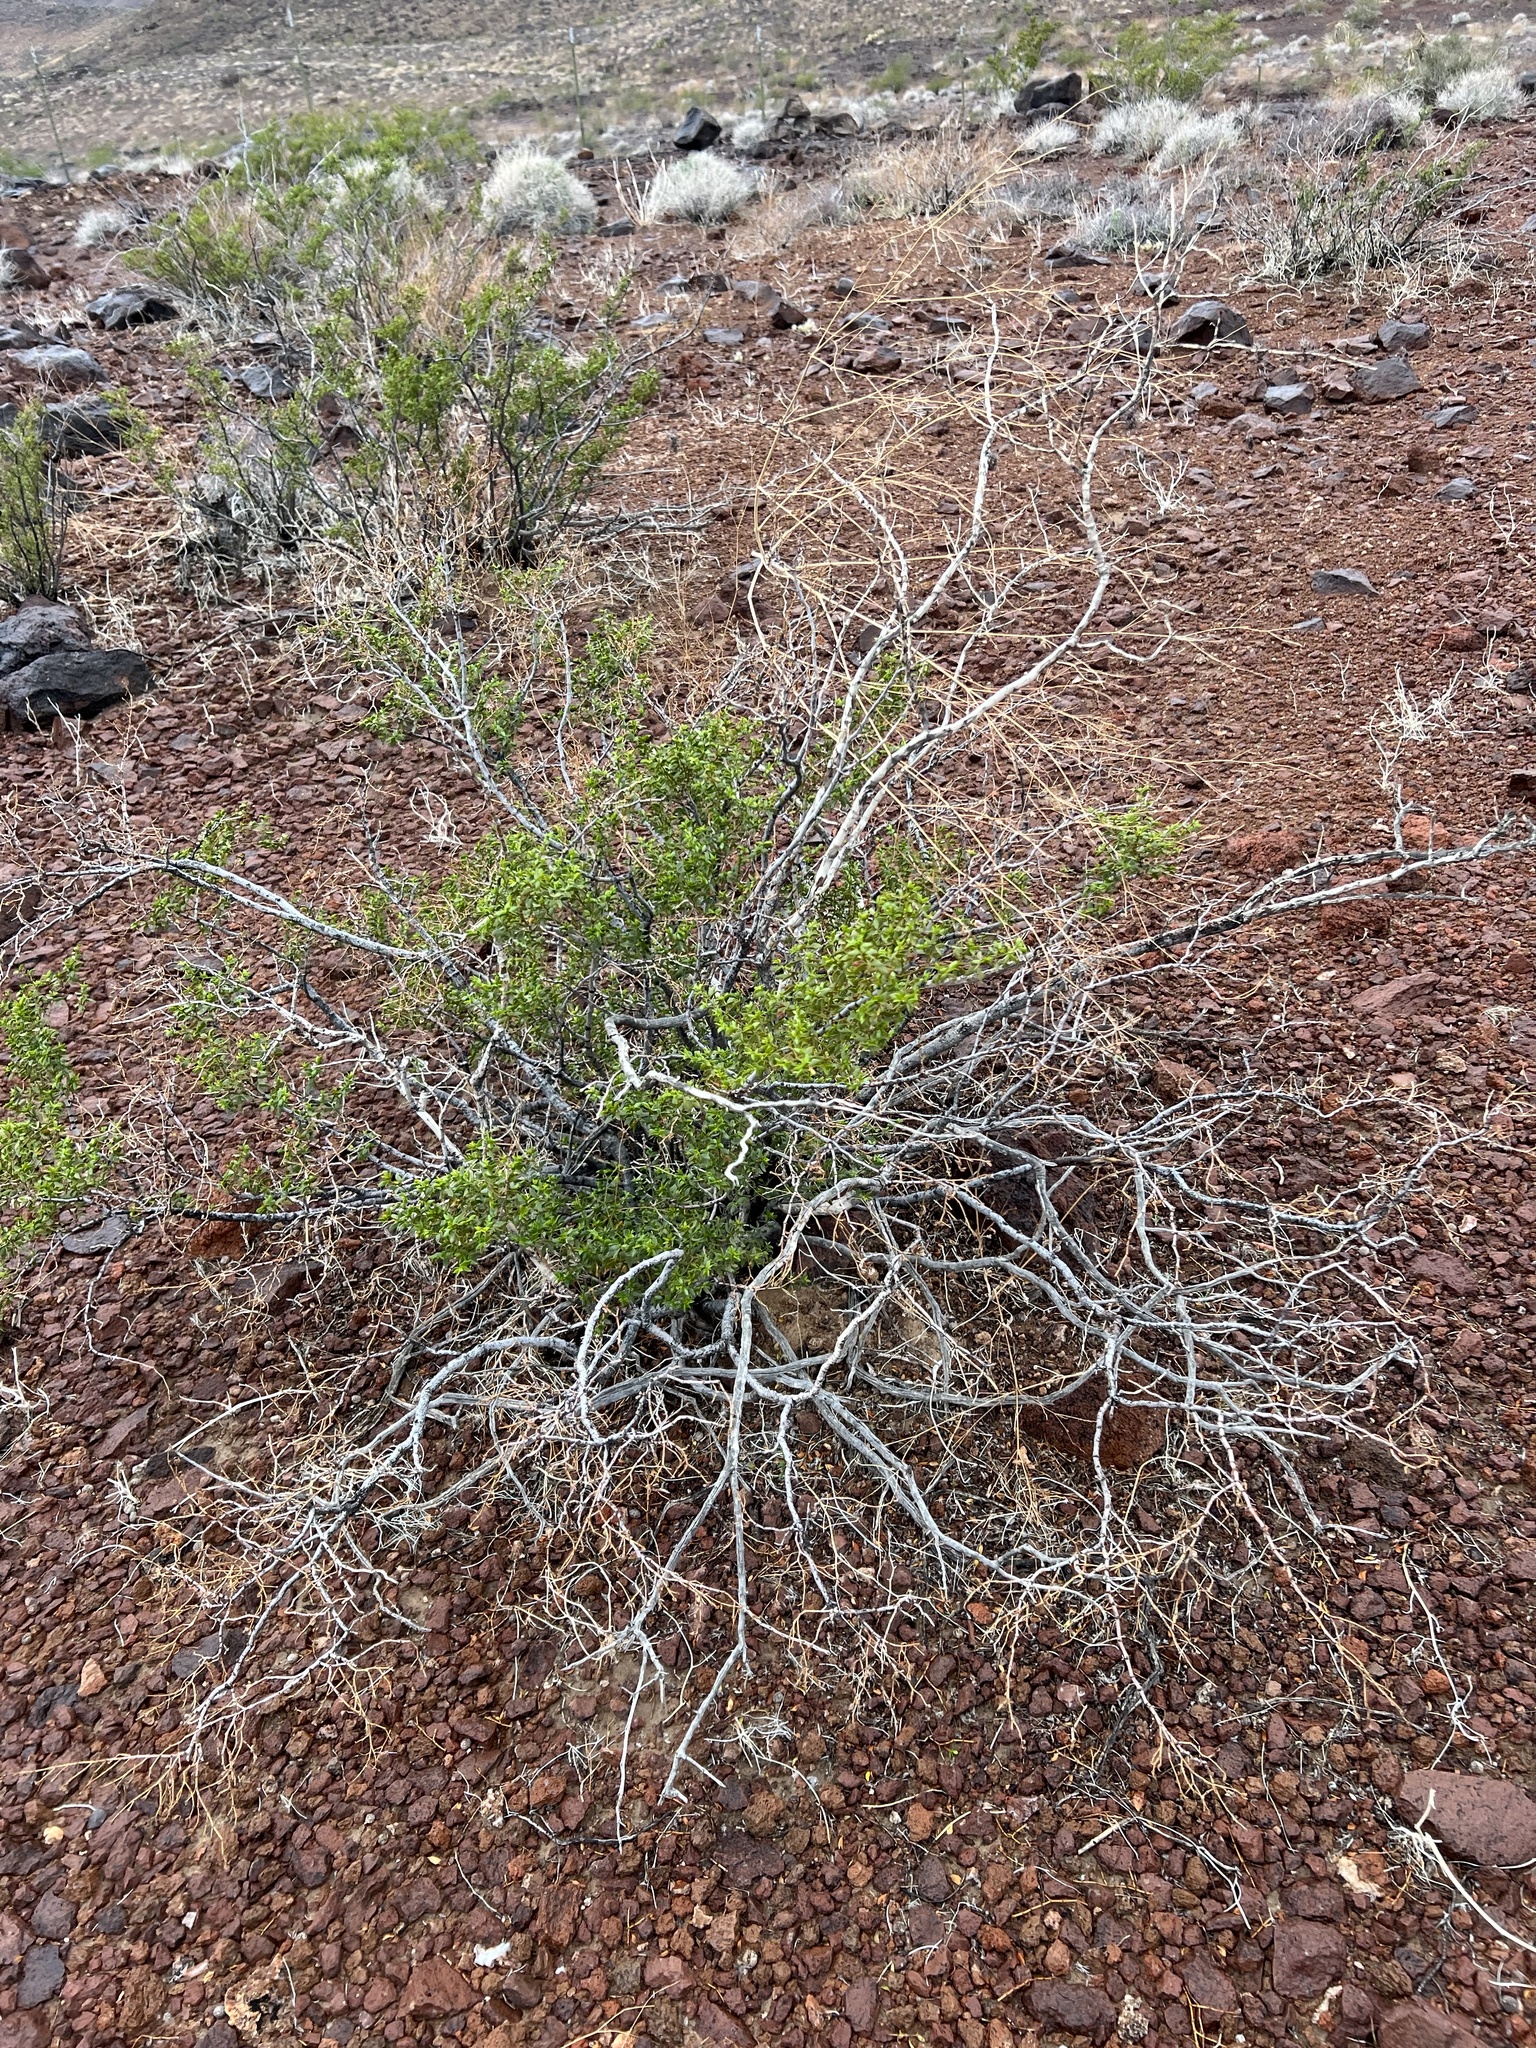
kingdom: Plantae
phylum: Tracheophyta
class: Magnoliopsida
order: Zygophyllales
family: Zygophyllaceae
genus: Larrea
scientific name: Larrea tridentata
